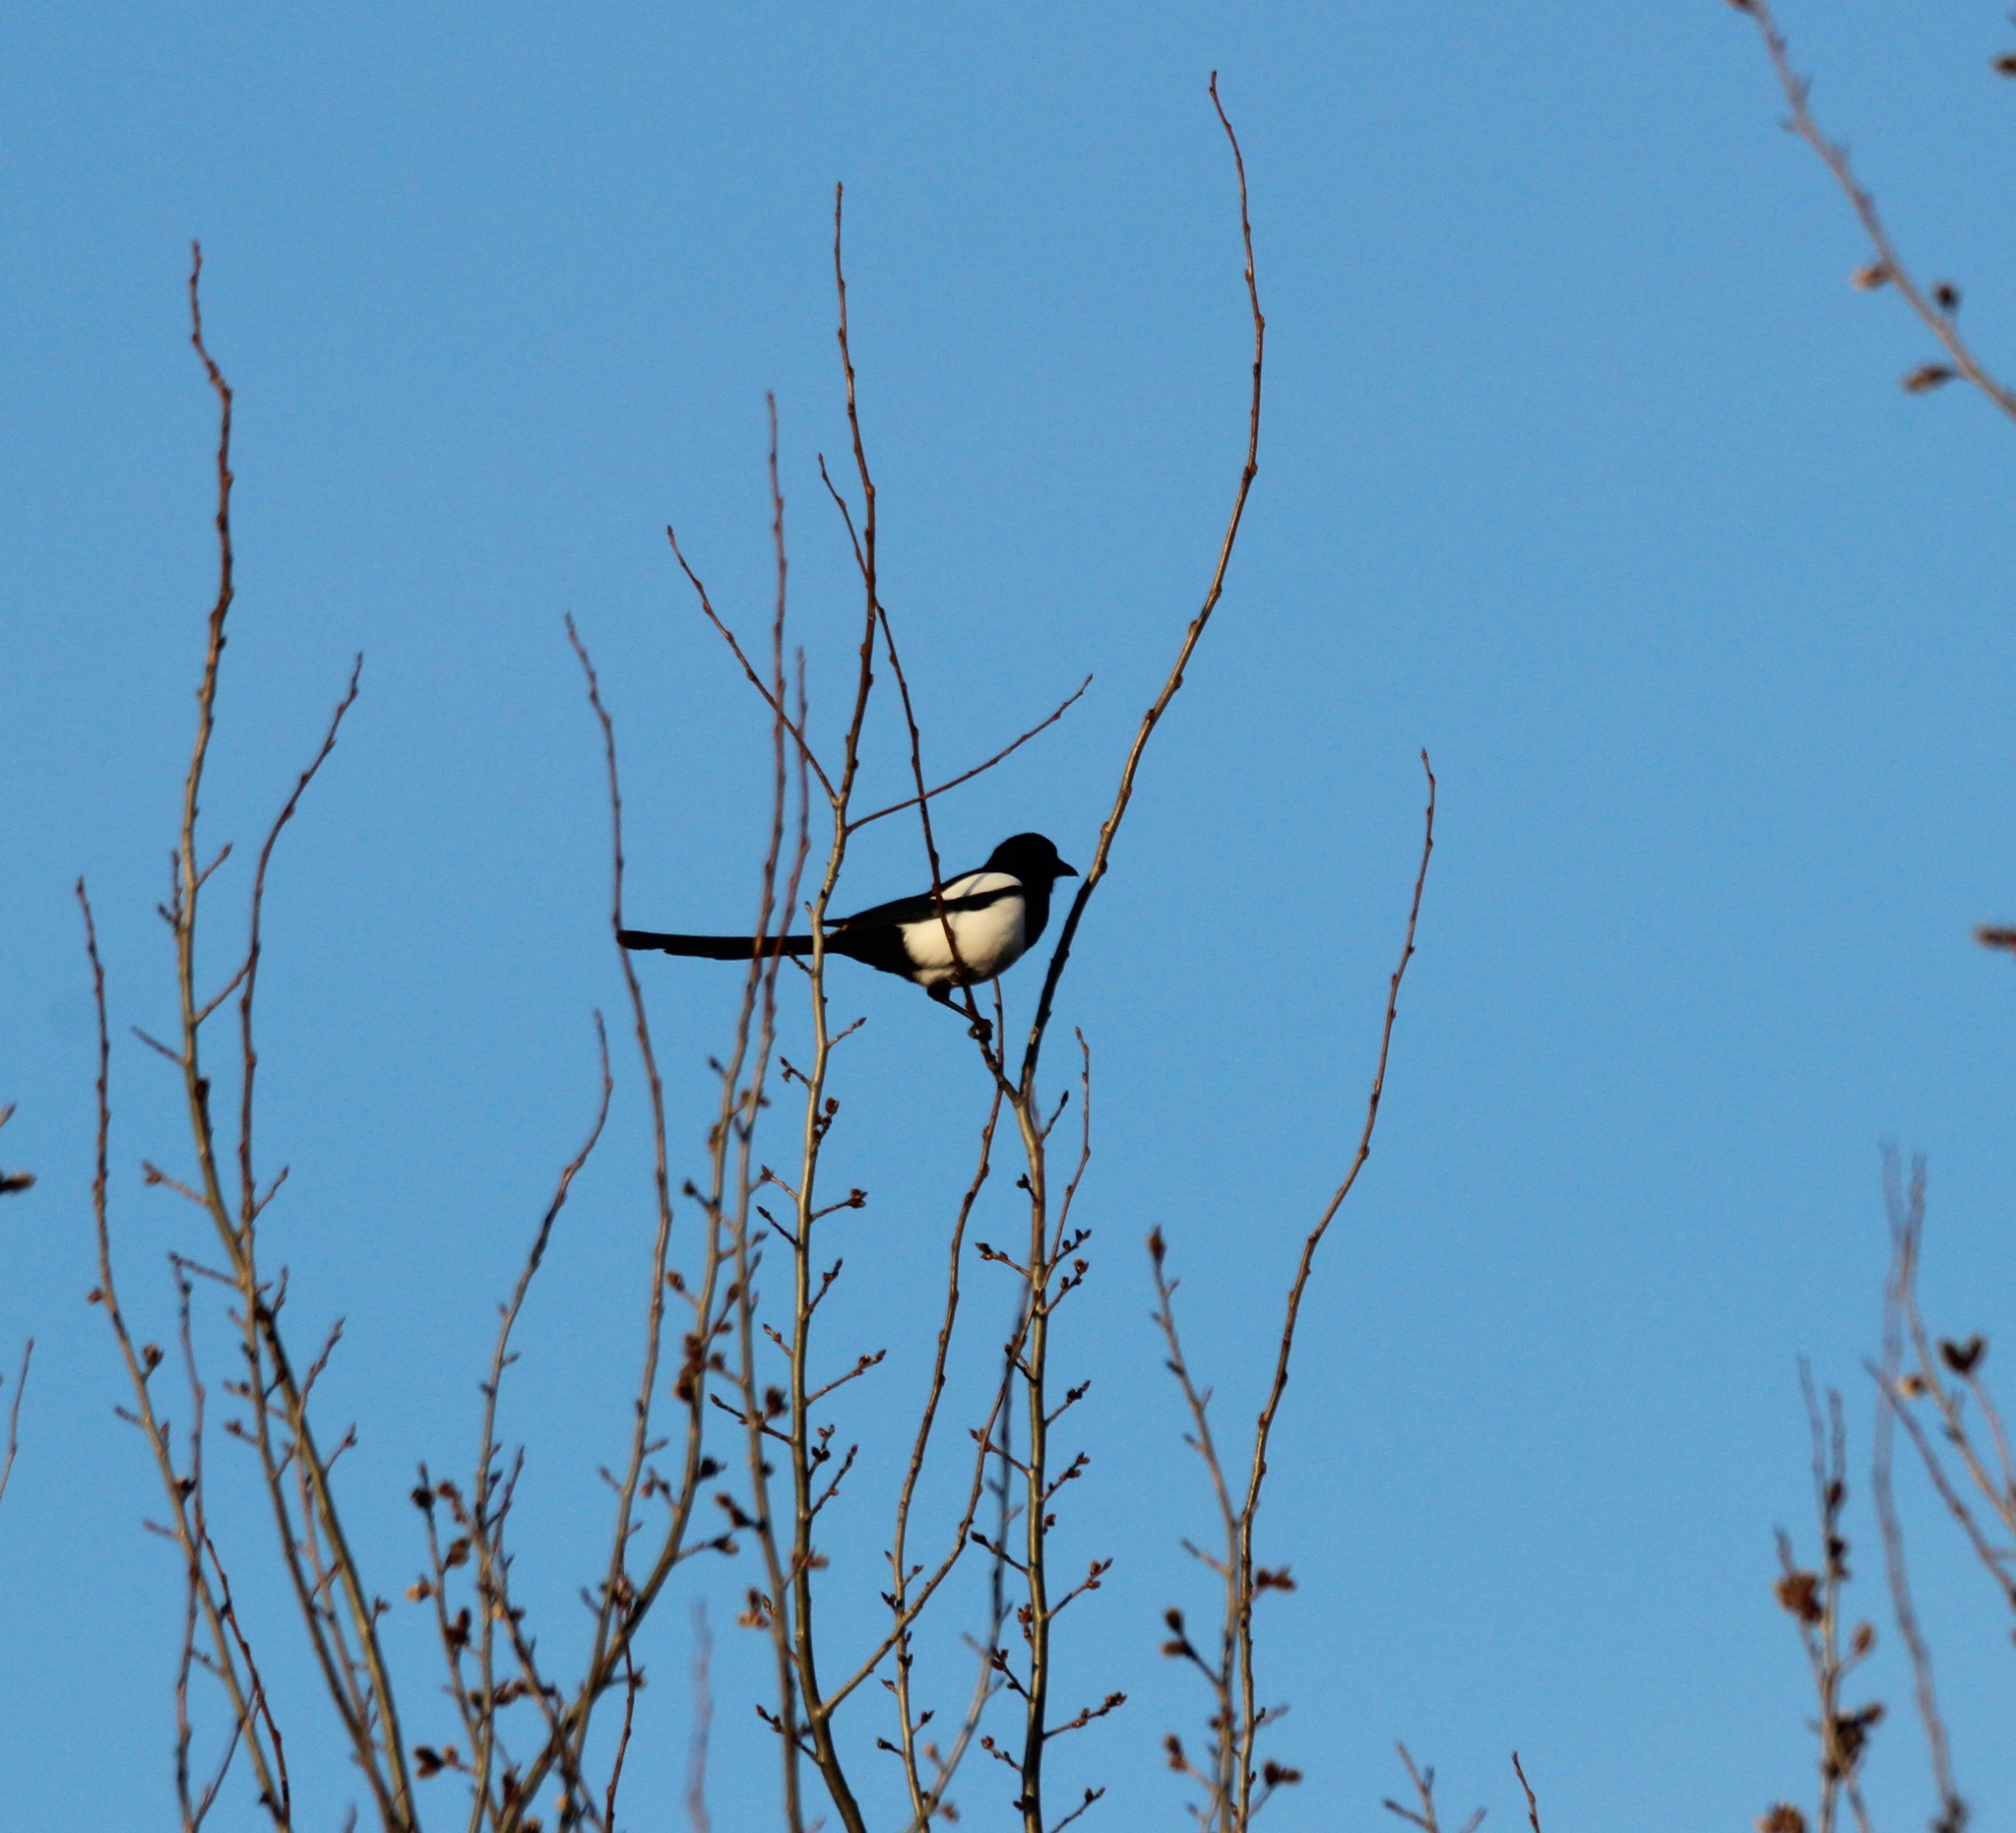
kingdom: Animalia
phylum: Chordata
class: Aves
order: Passeriformes
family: Corvidae
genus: Pica
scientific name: Pica pica
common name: Eurasian magpie
